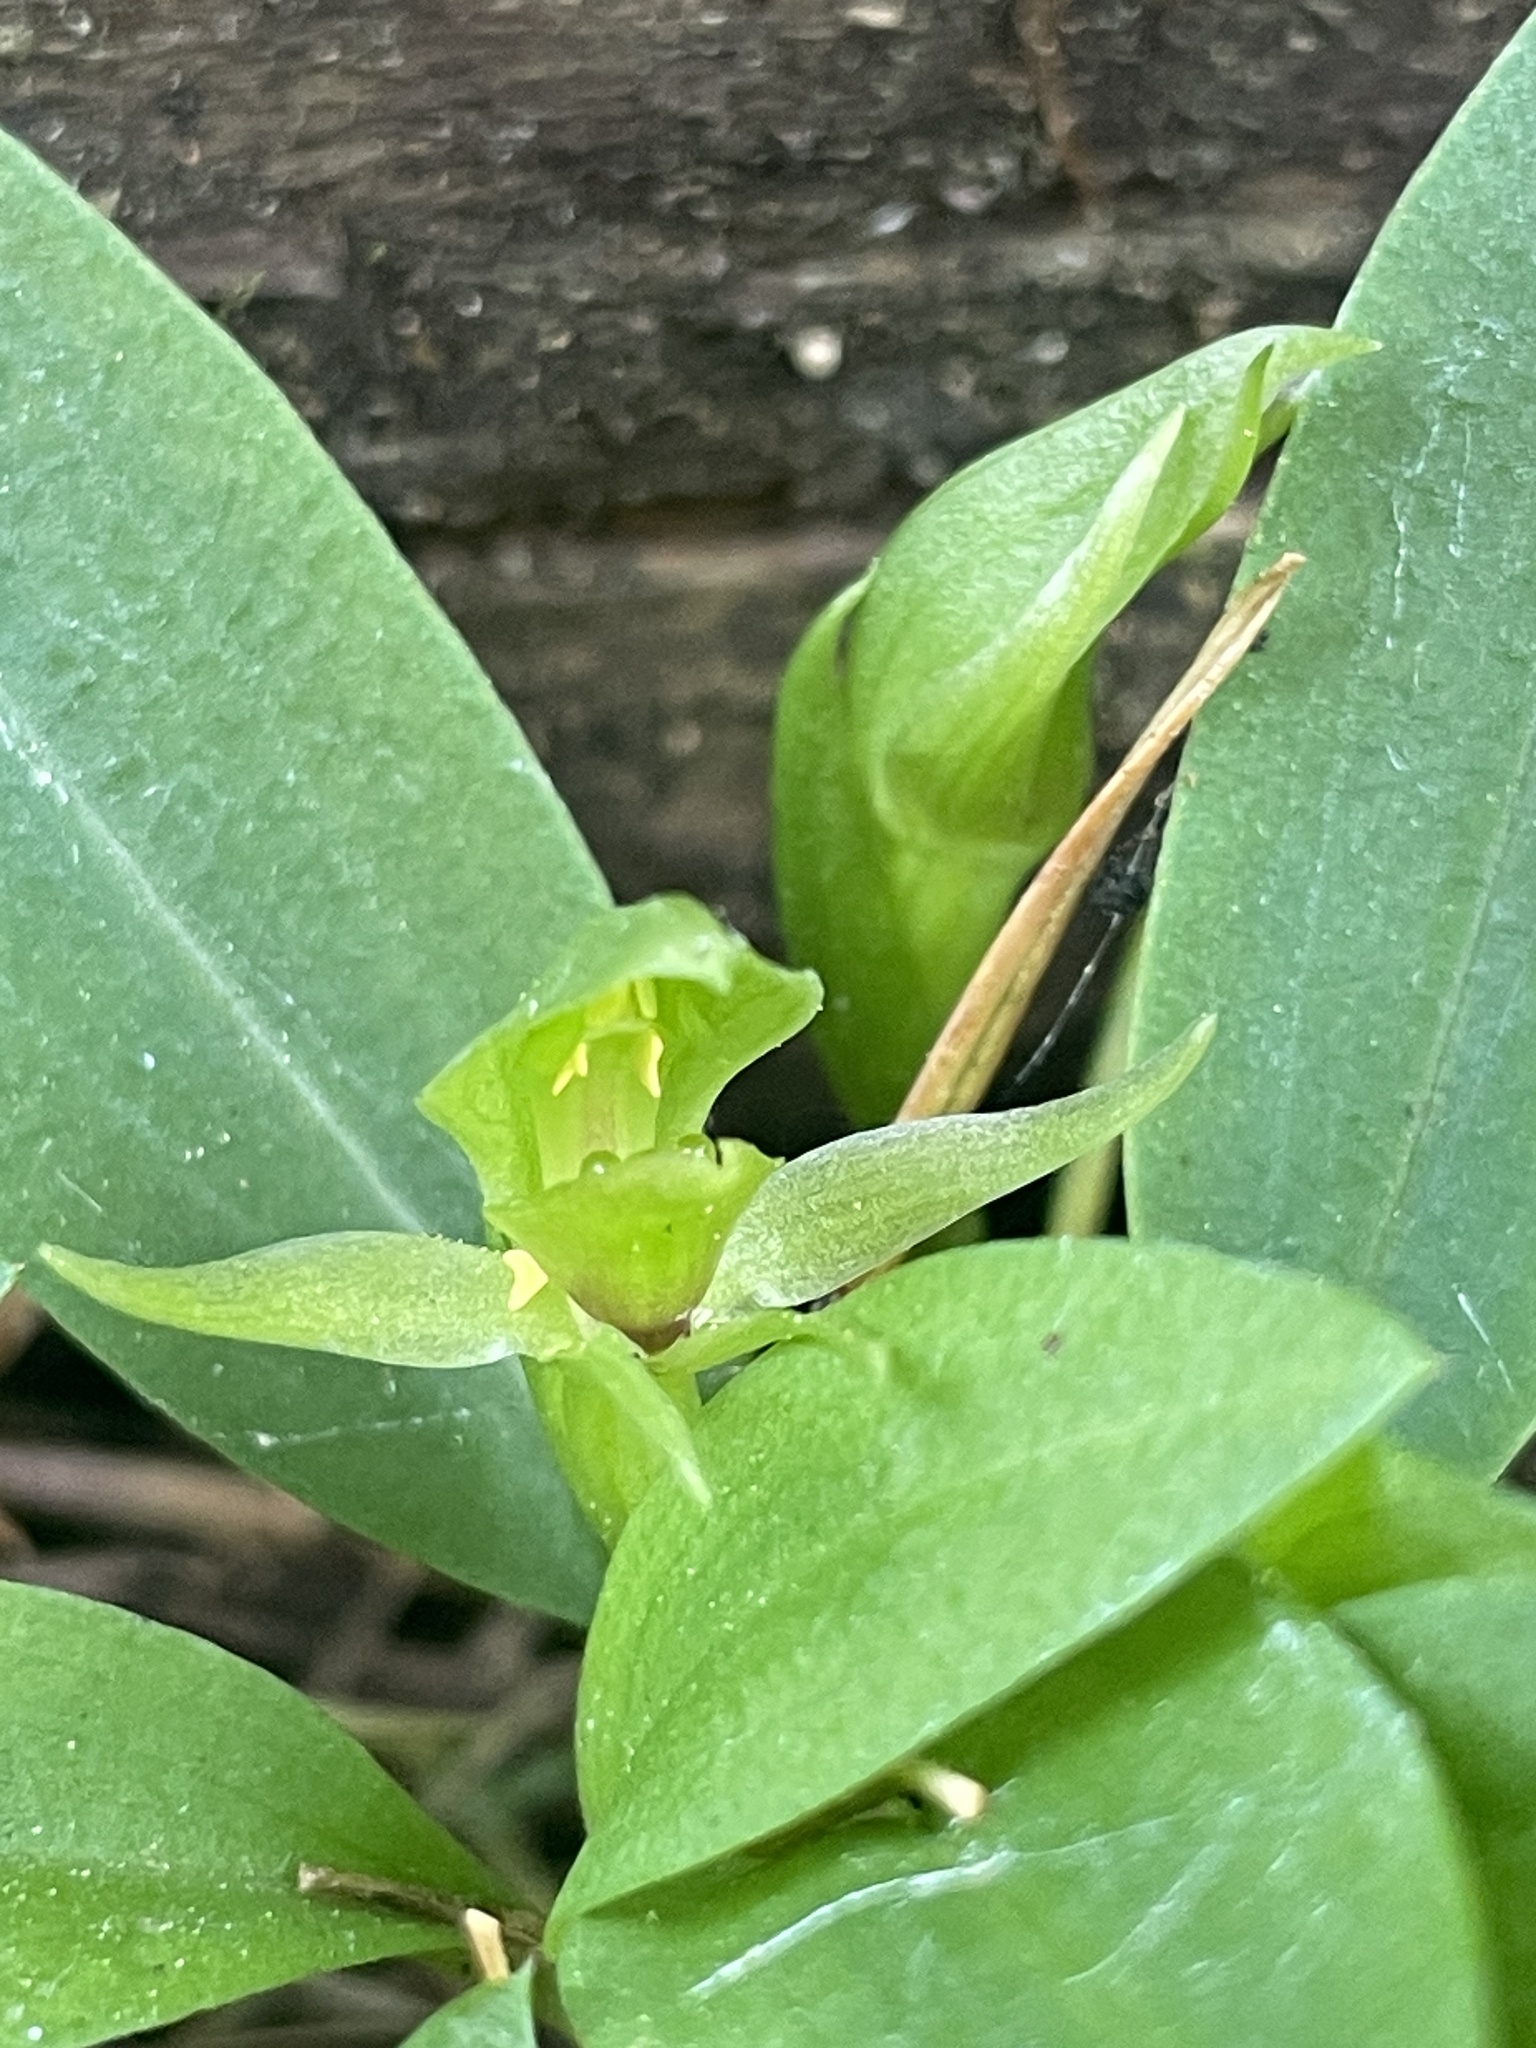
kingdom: Plantae
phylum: Tracheophyta
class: Liliopsida
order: Asparagales
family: Orchidaceae
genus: Chiloglottis
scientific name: Chiloglottis cornuta
